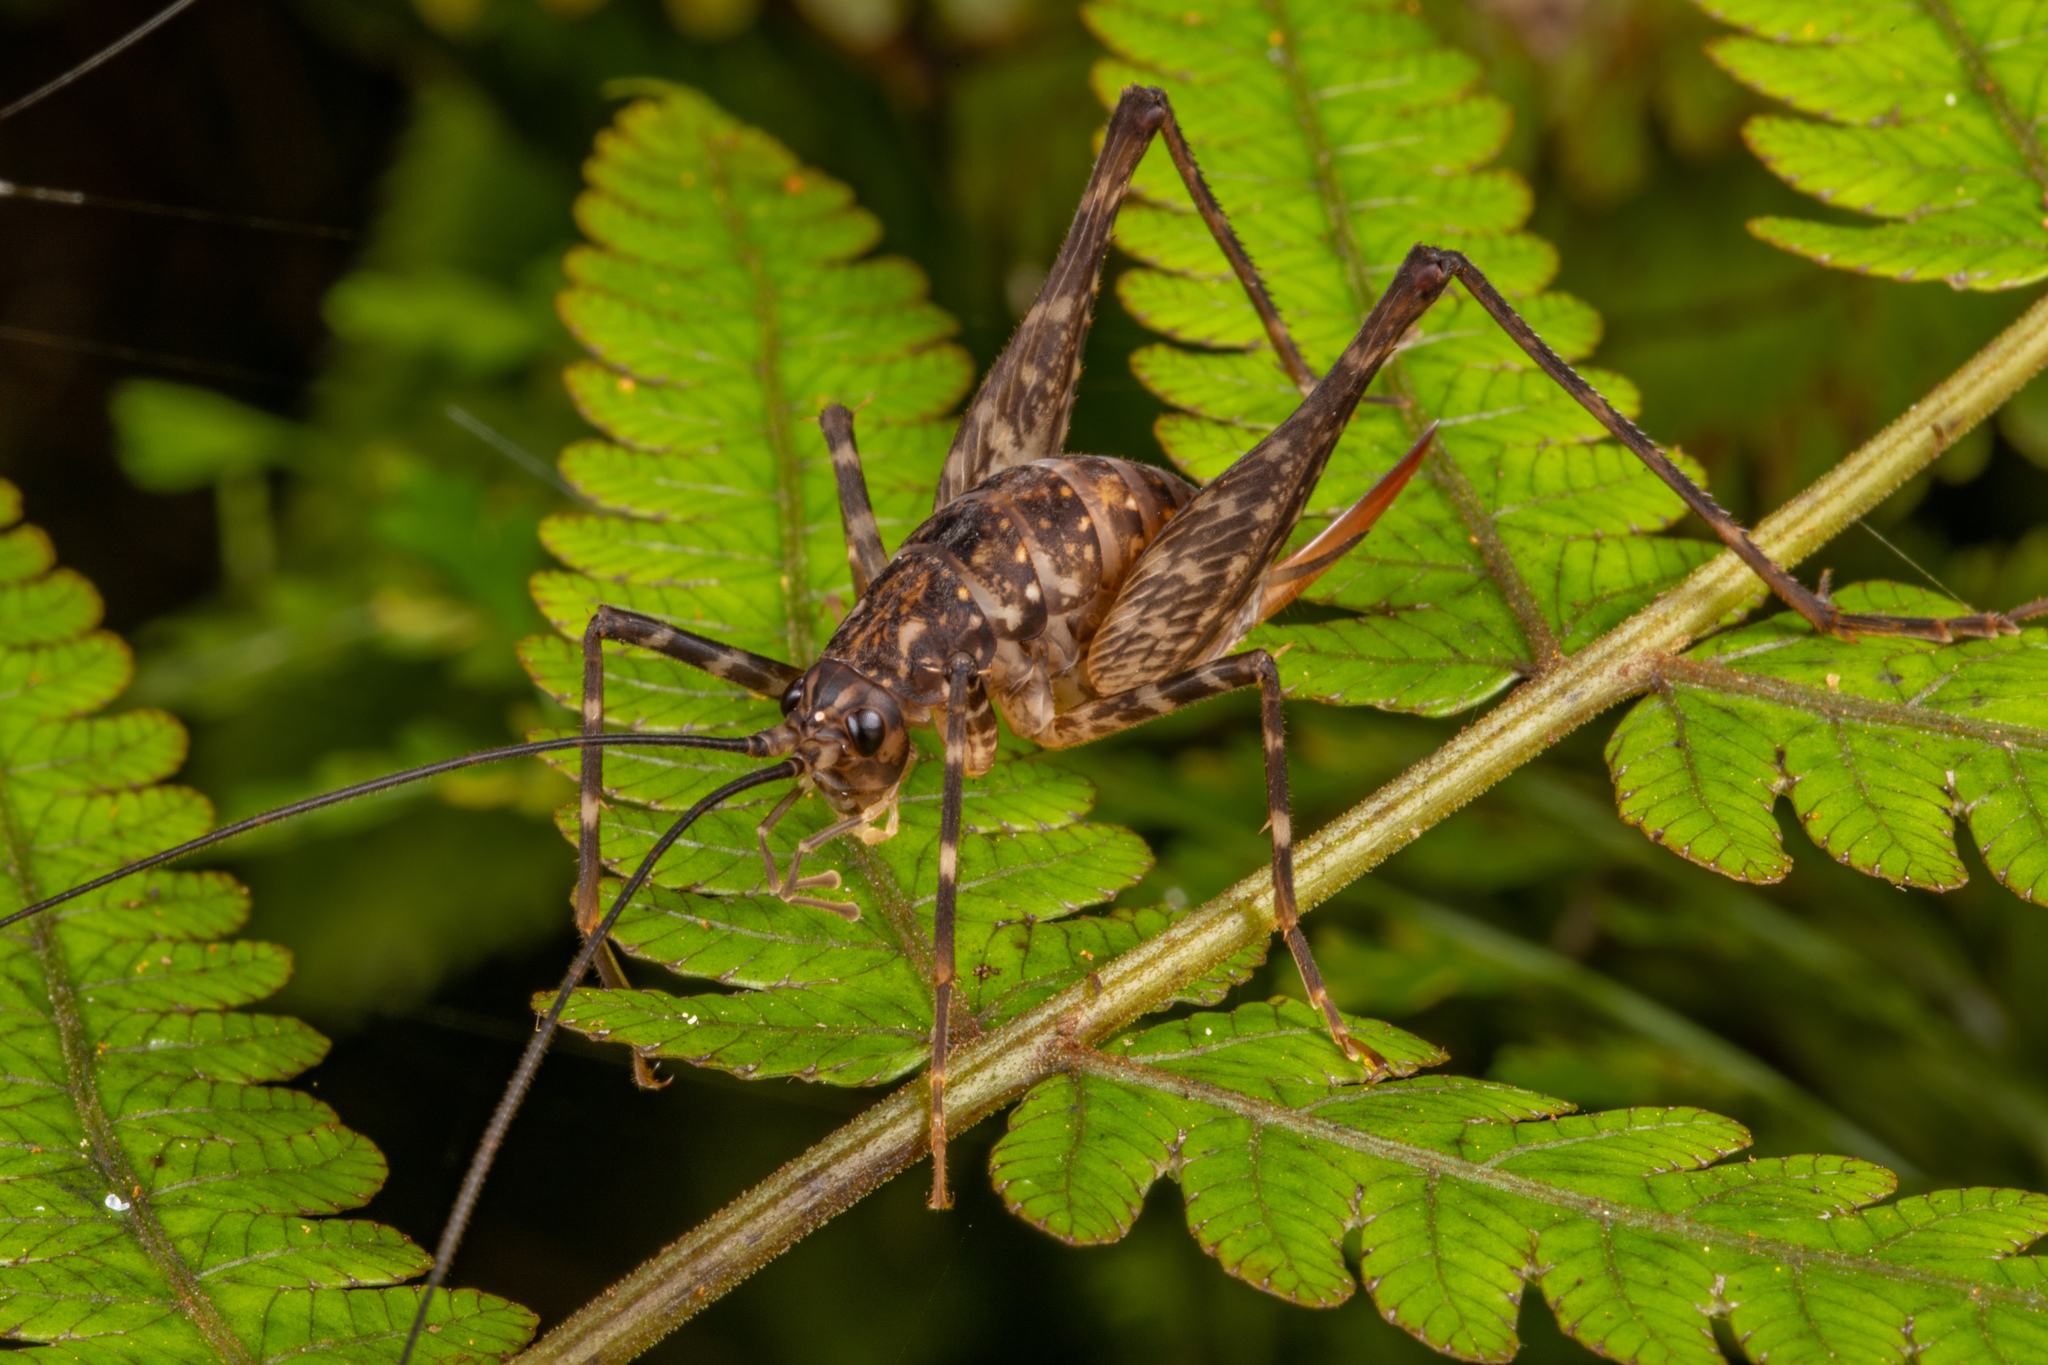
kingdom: Animalia
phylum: Arthropoda
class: Insecta
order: Orthoptera
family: Rhaphidophoridae
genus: Miotopus
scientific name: Miotopus diversus
